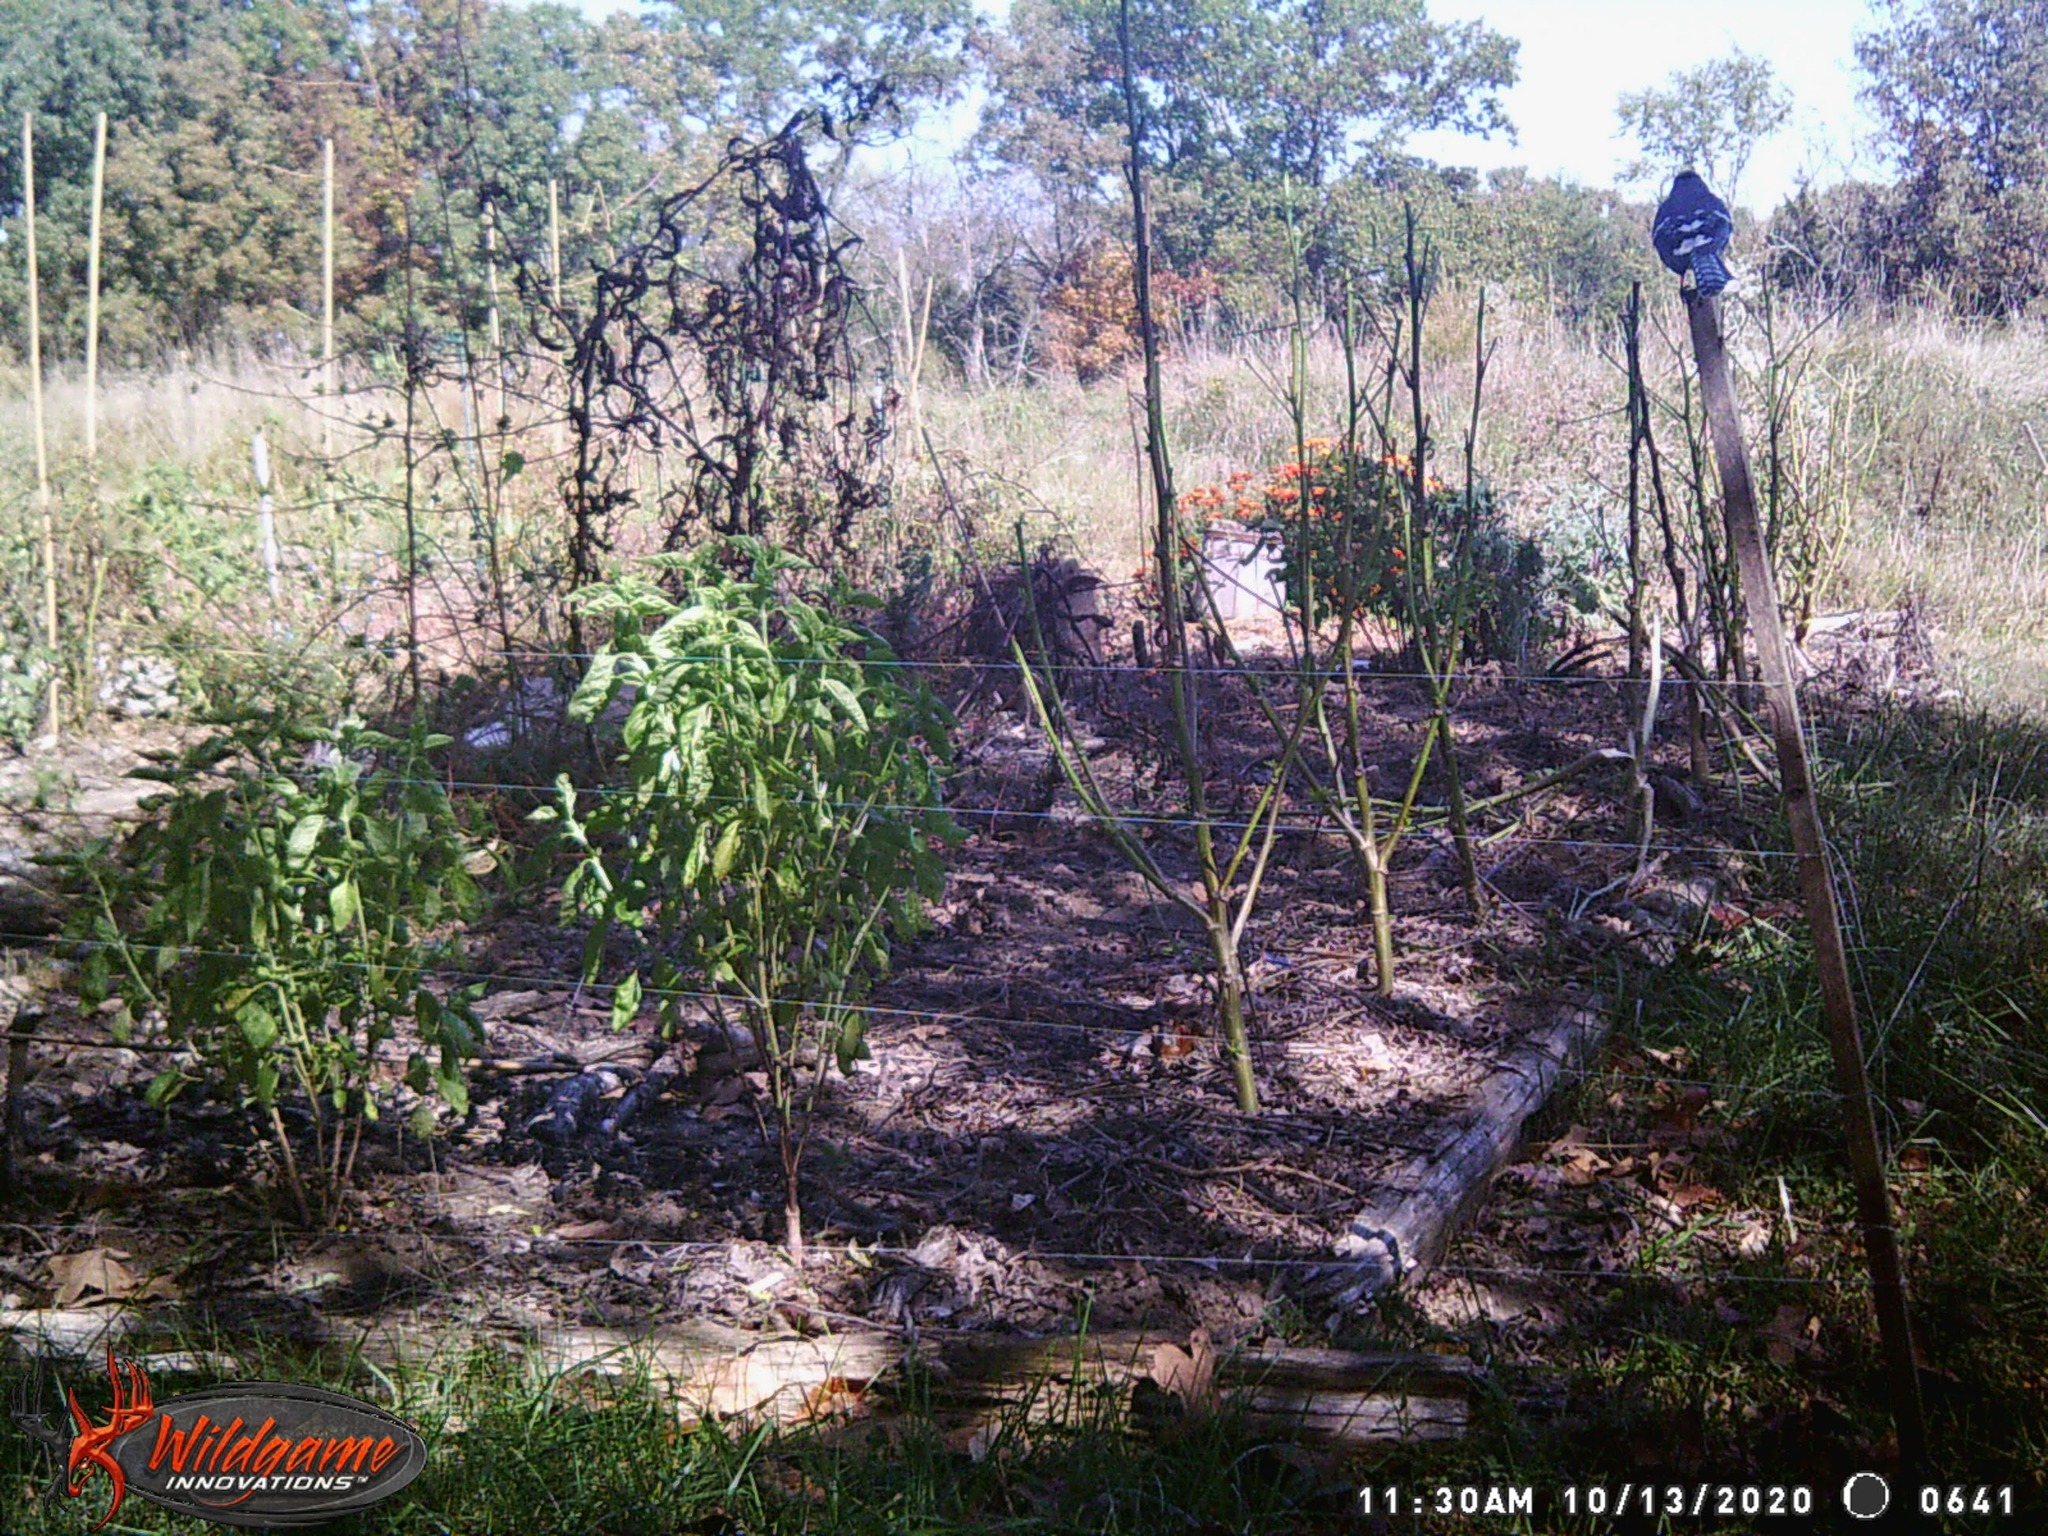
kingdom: Animalia
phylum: Chordata
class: Aves
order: Passeriformes
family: Corvidae
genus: Cyanocitta
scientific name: Cyanocitta cristata
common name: Blue jay
